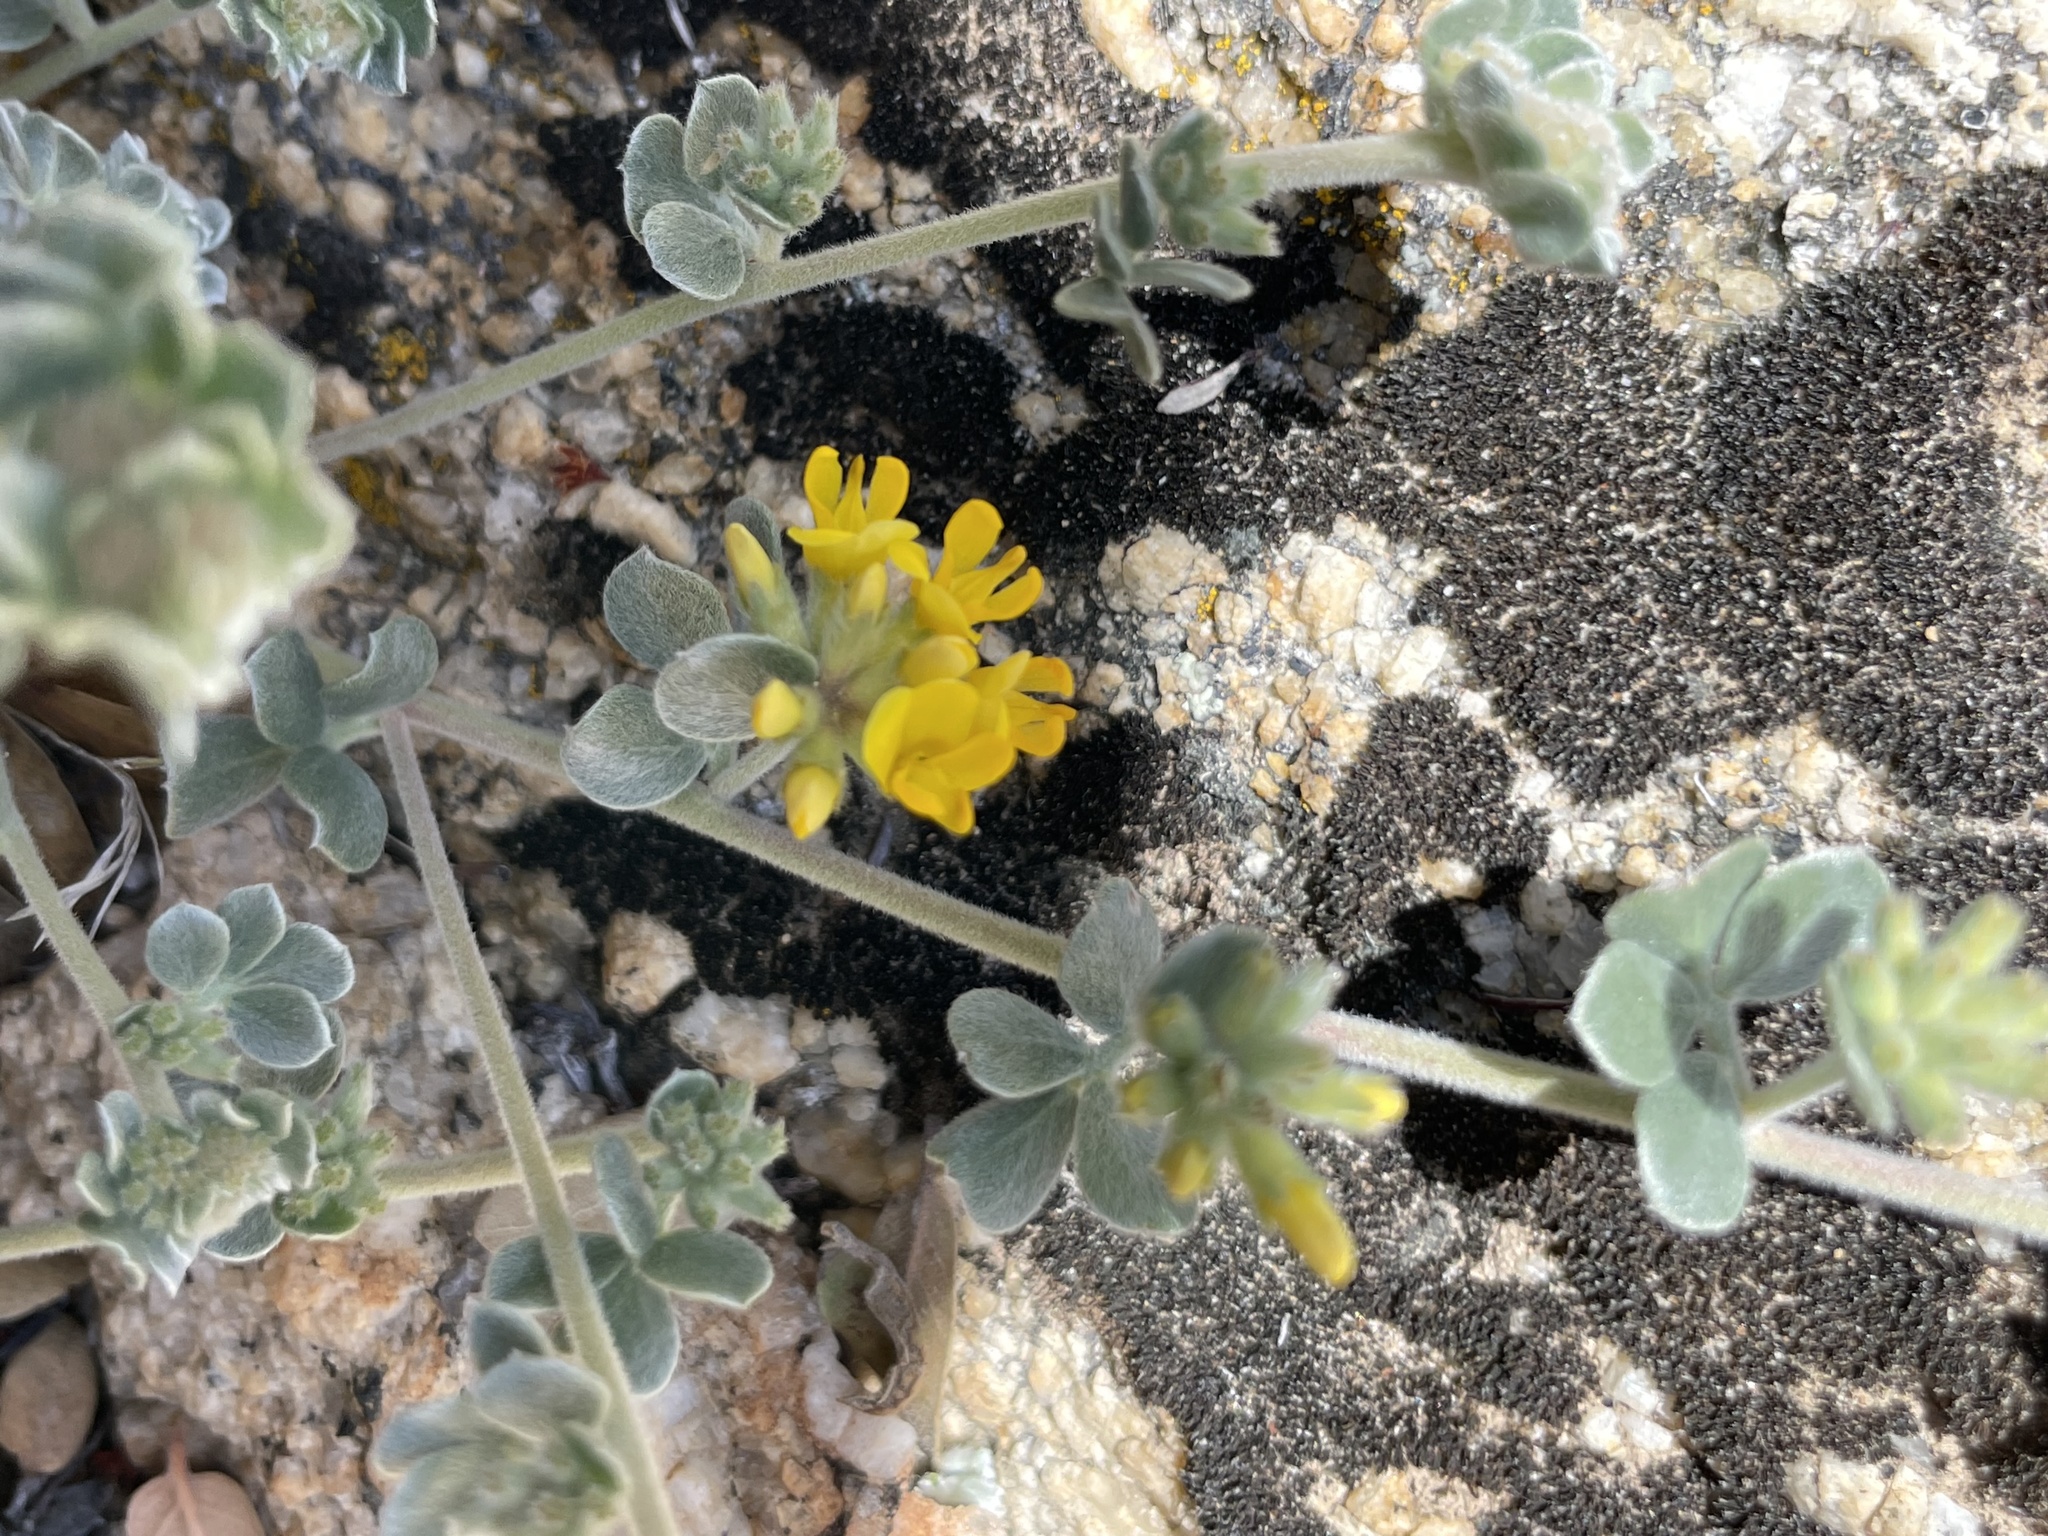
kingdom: Plantae
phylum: Tracheophyta
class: Magnoliopsida
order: Fabales
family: Fabaceae
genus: Acmispon
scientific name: Acmispon argophyllus
